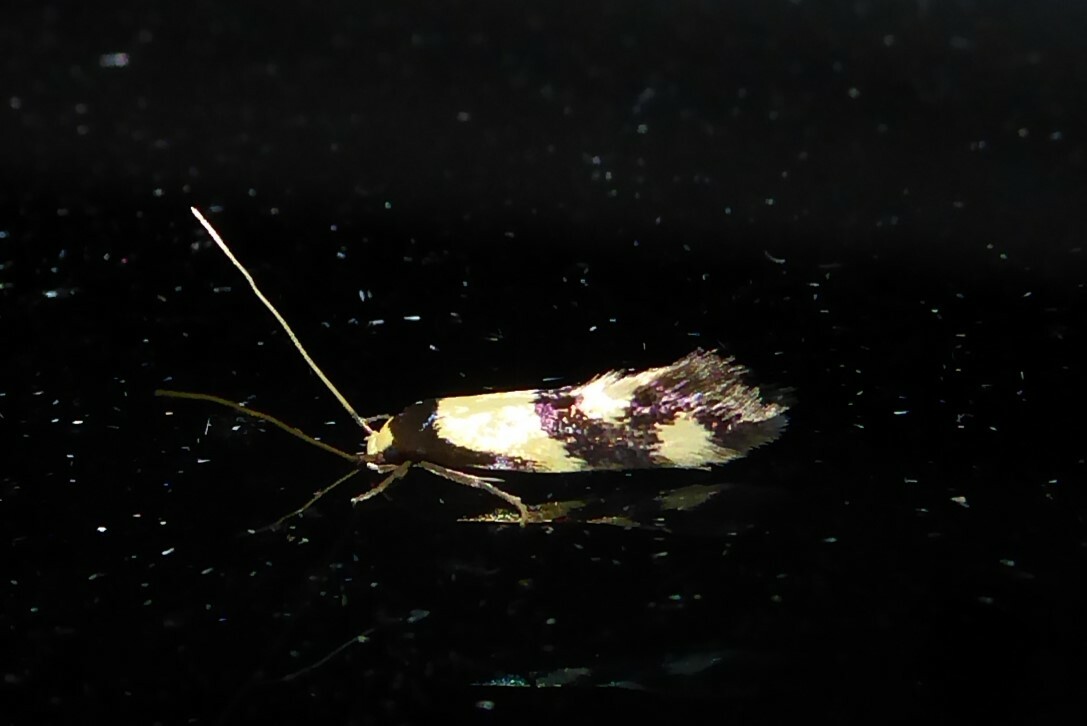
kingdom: Animalia
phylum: Arthropoda
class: Insecta
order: Lepidoptera
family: Tineidae
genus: Opogona
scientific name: Opogona comptella
